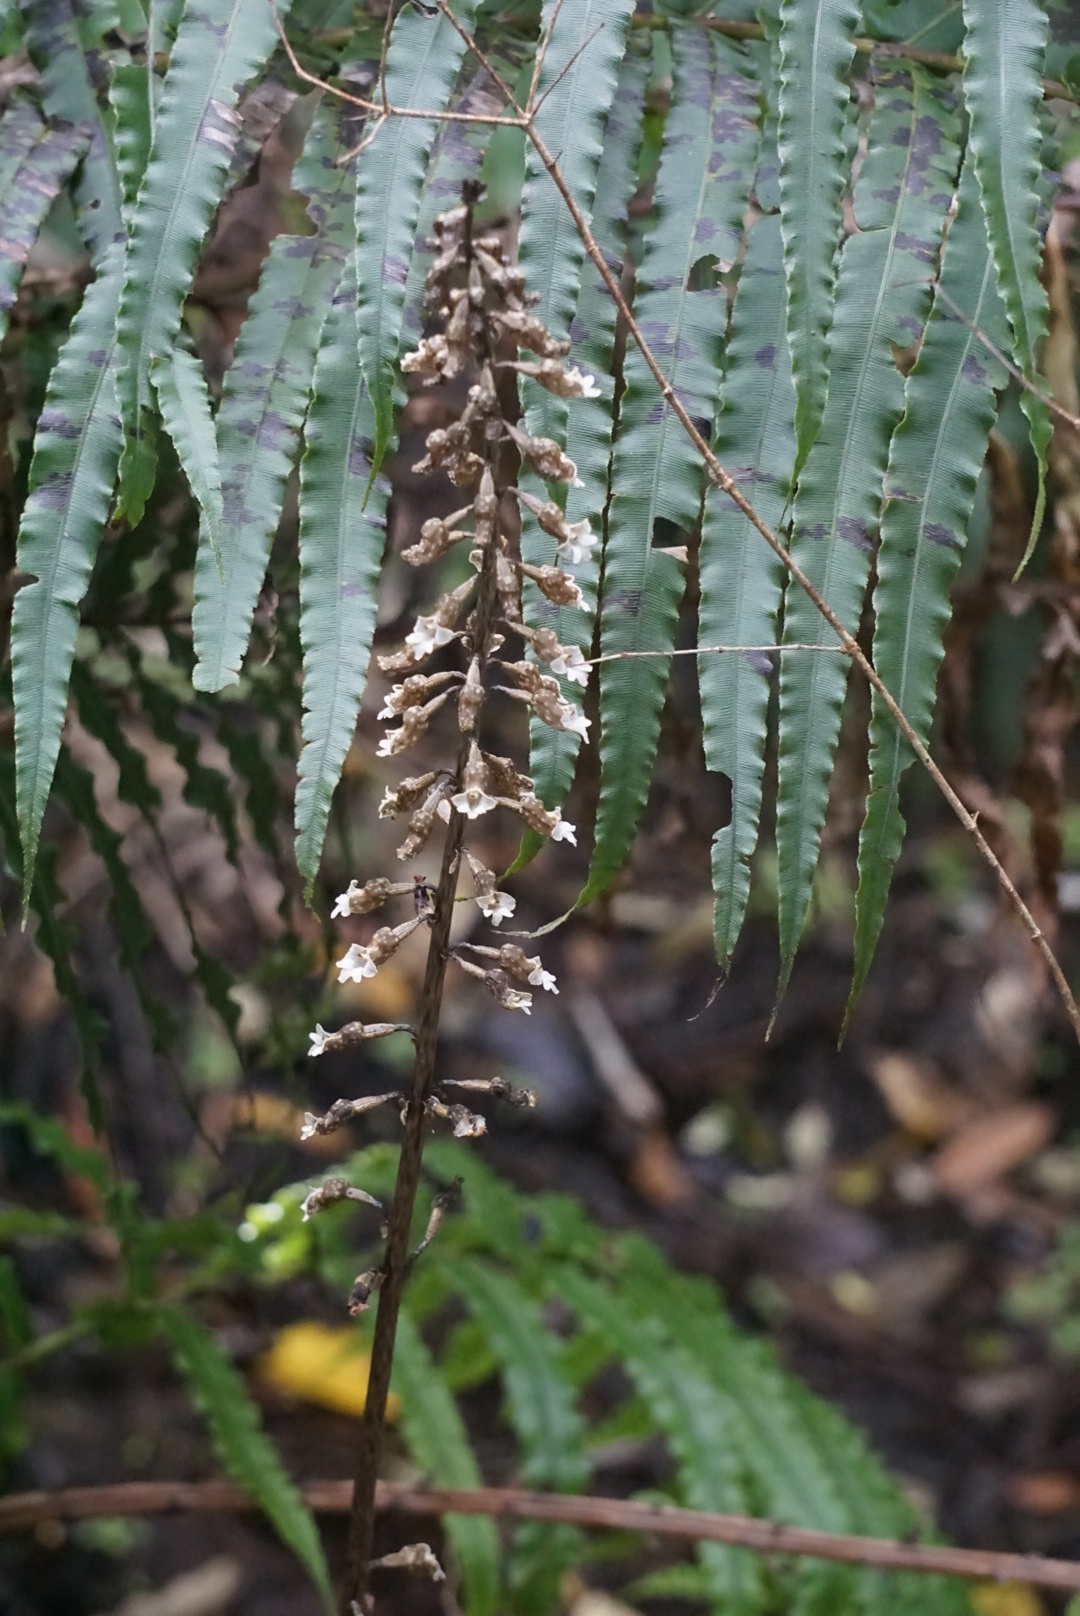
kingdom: Plantae
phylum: Tracheophyta
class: Liliopsida
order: Asparagales
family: Orchidaceae
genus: Gastrodia
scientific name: Gastrodia cunninghamii
